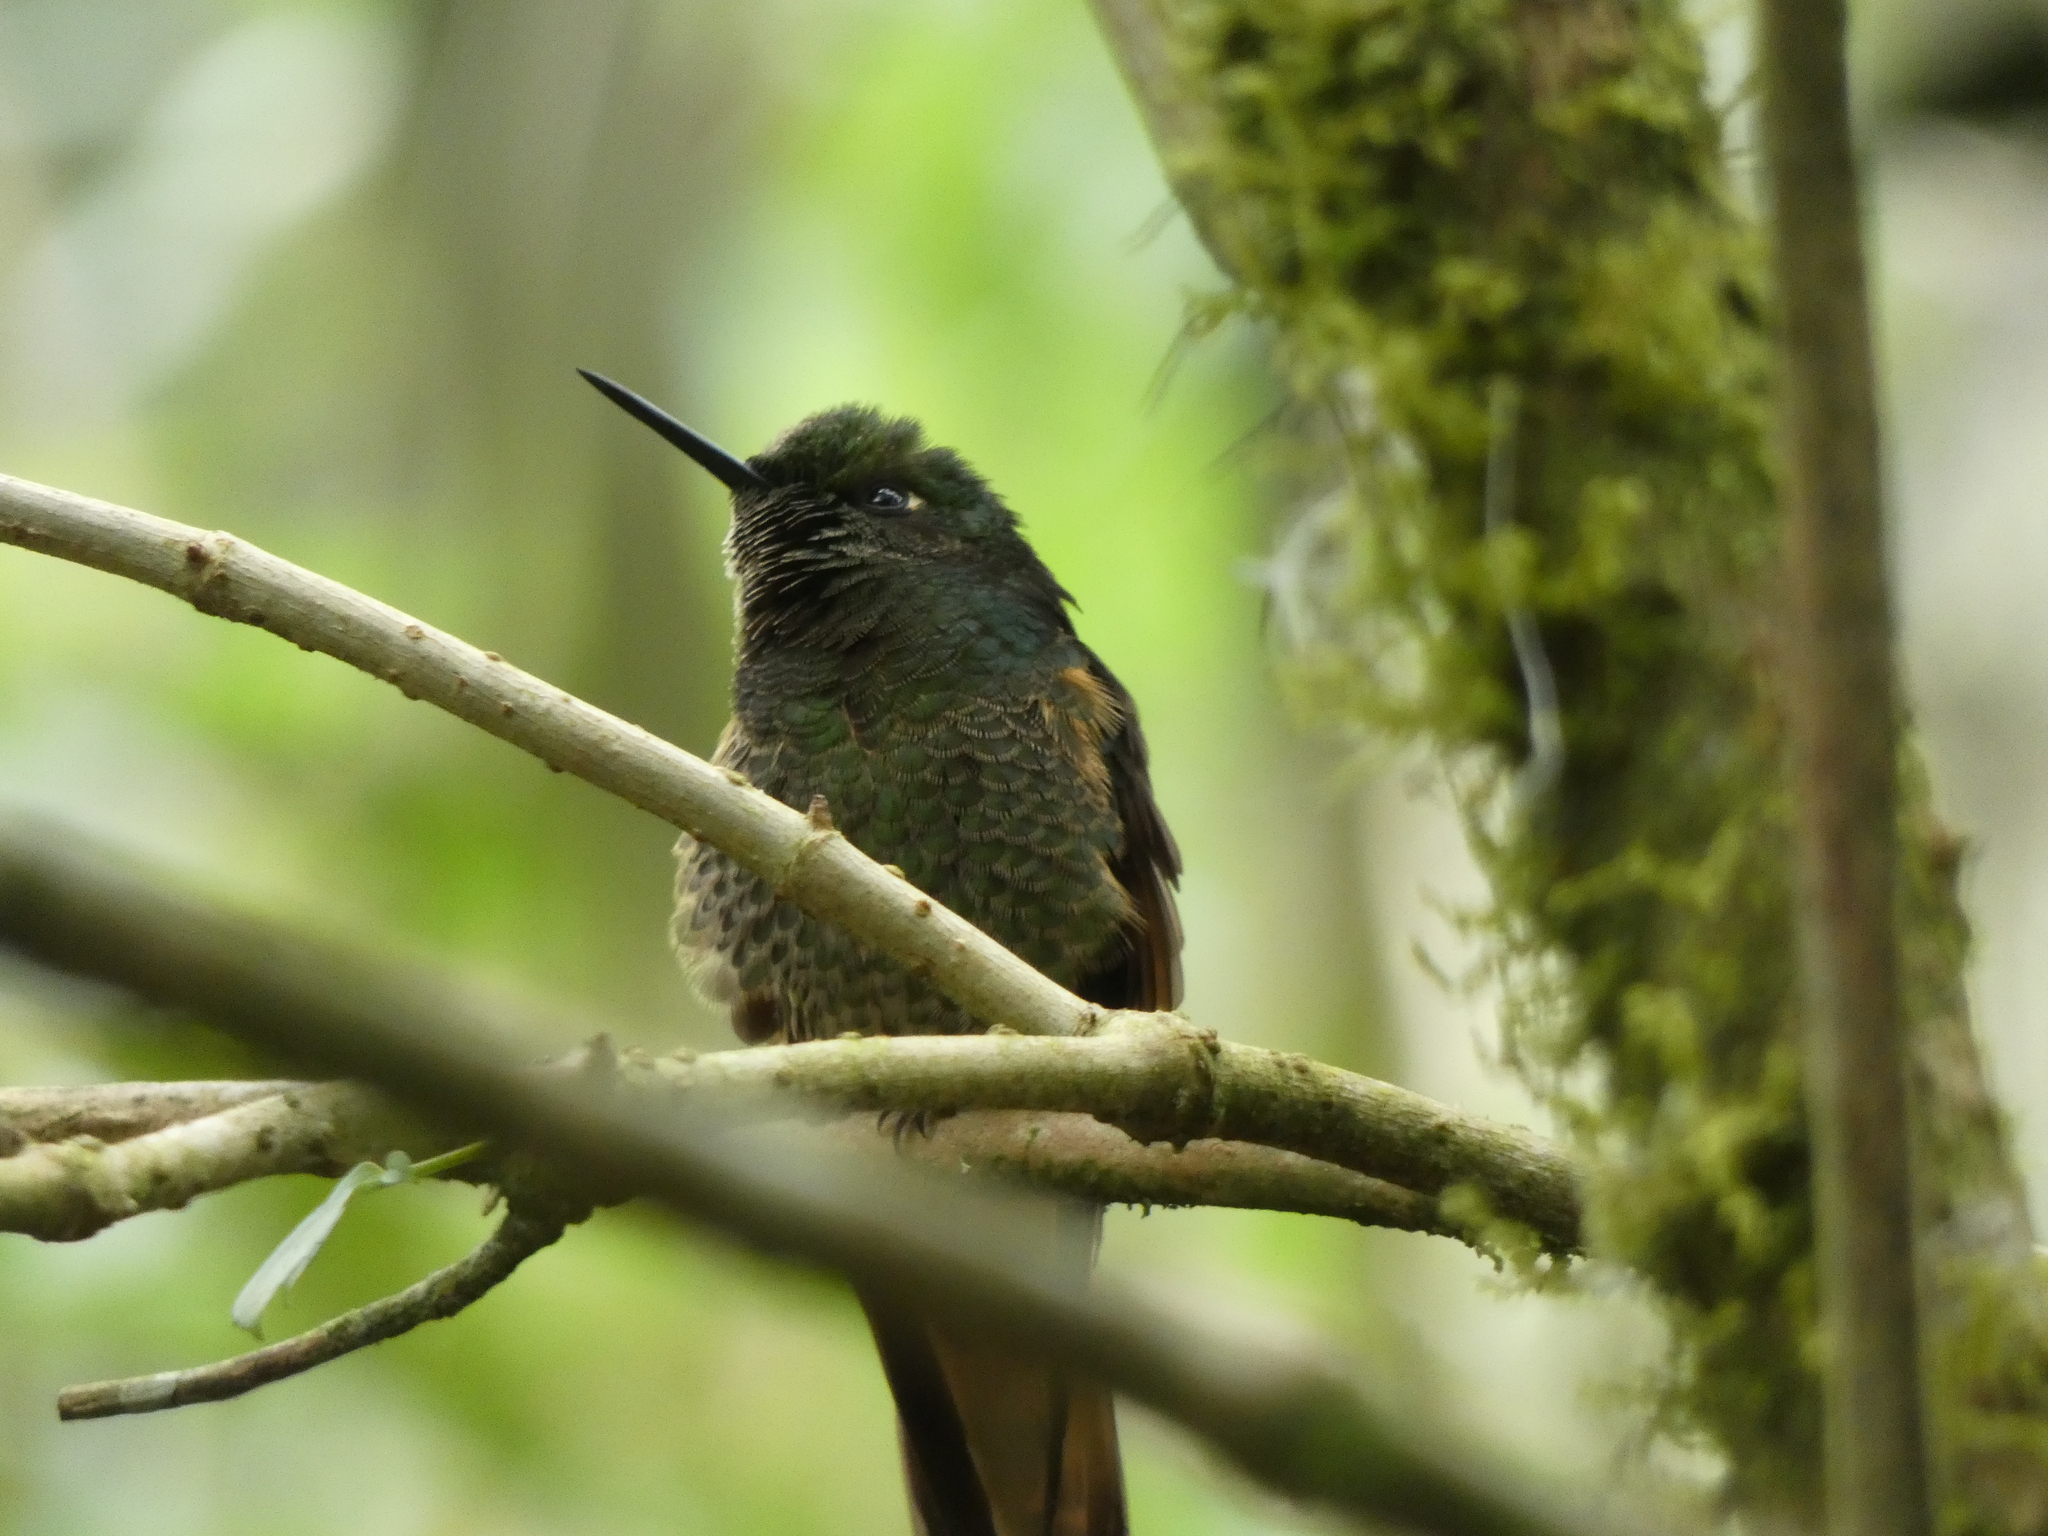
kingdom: Animalia
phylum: Chordata
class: Aves
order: Apodiformes
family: Trochilidae
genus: Boissonneaua
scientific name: Boissonneaua flavescens
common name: Buff-tailed coronet
